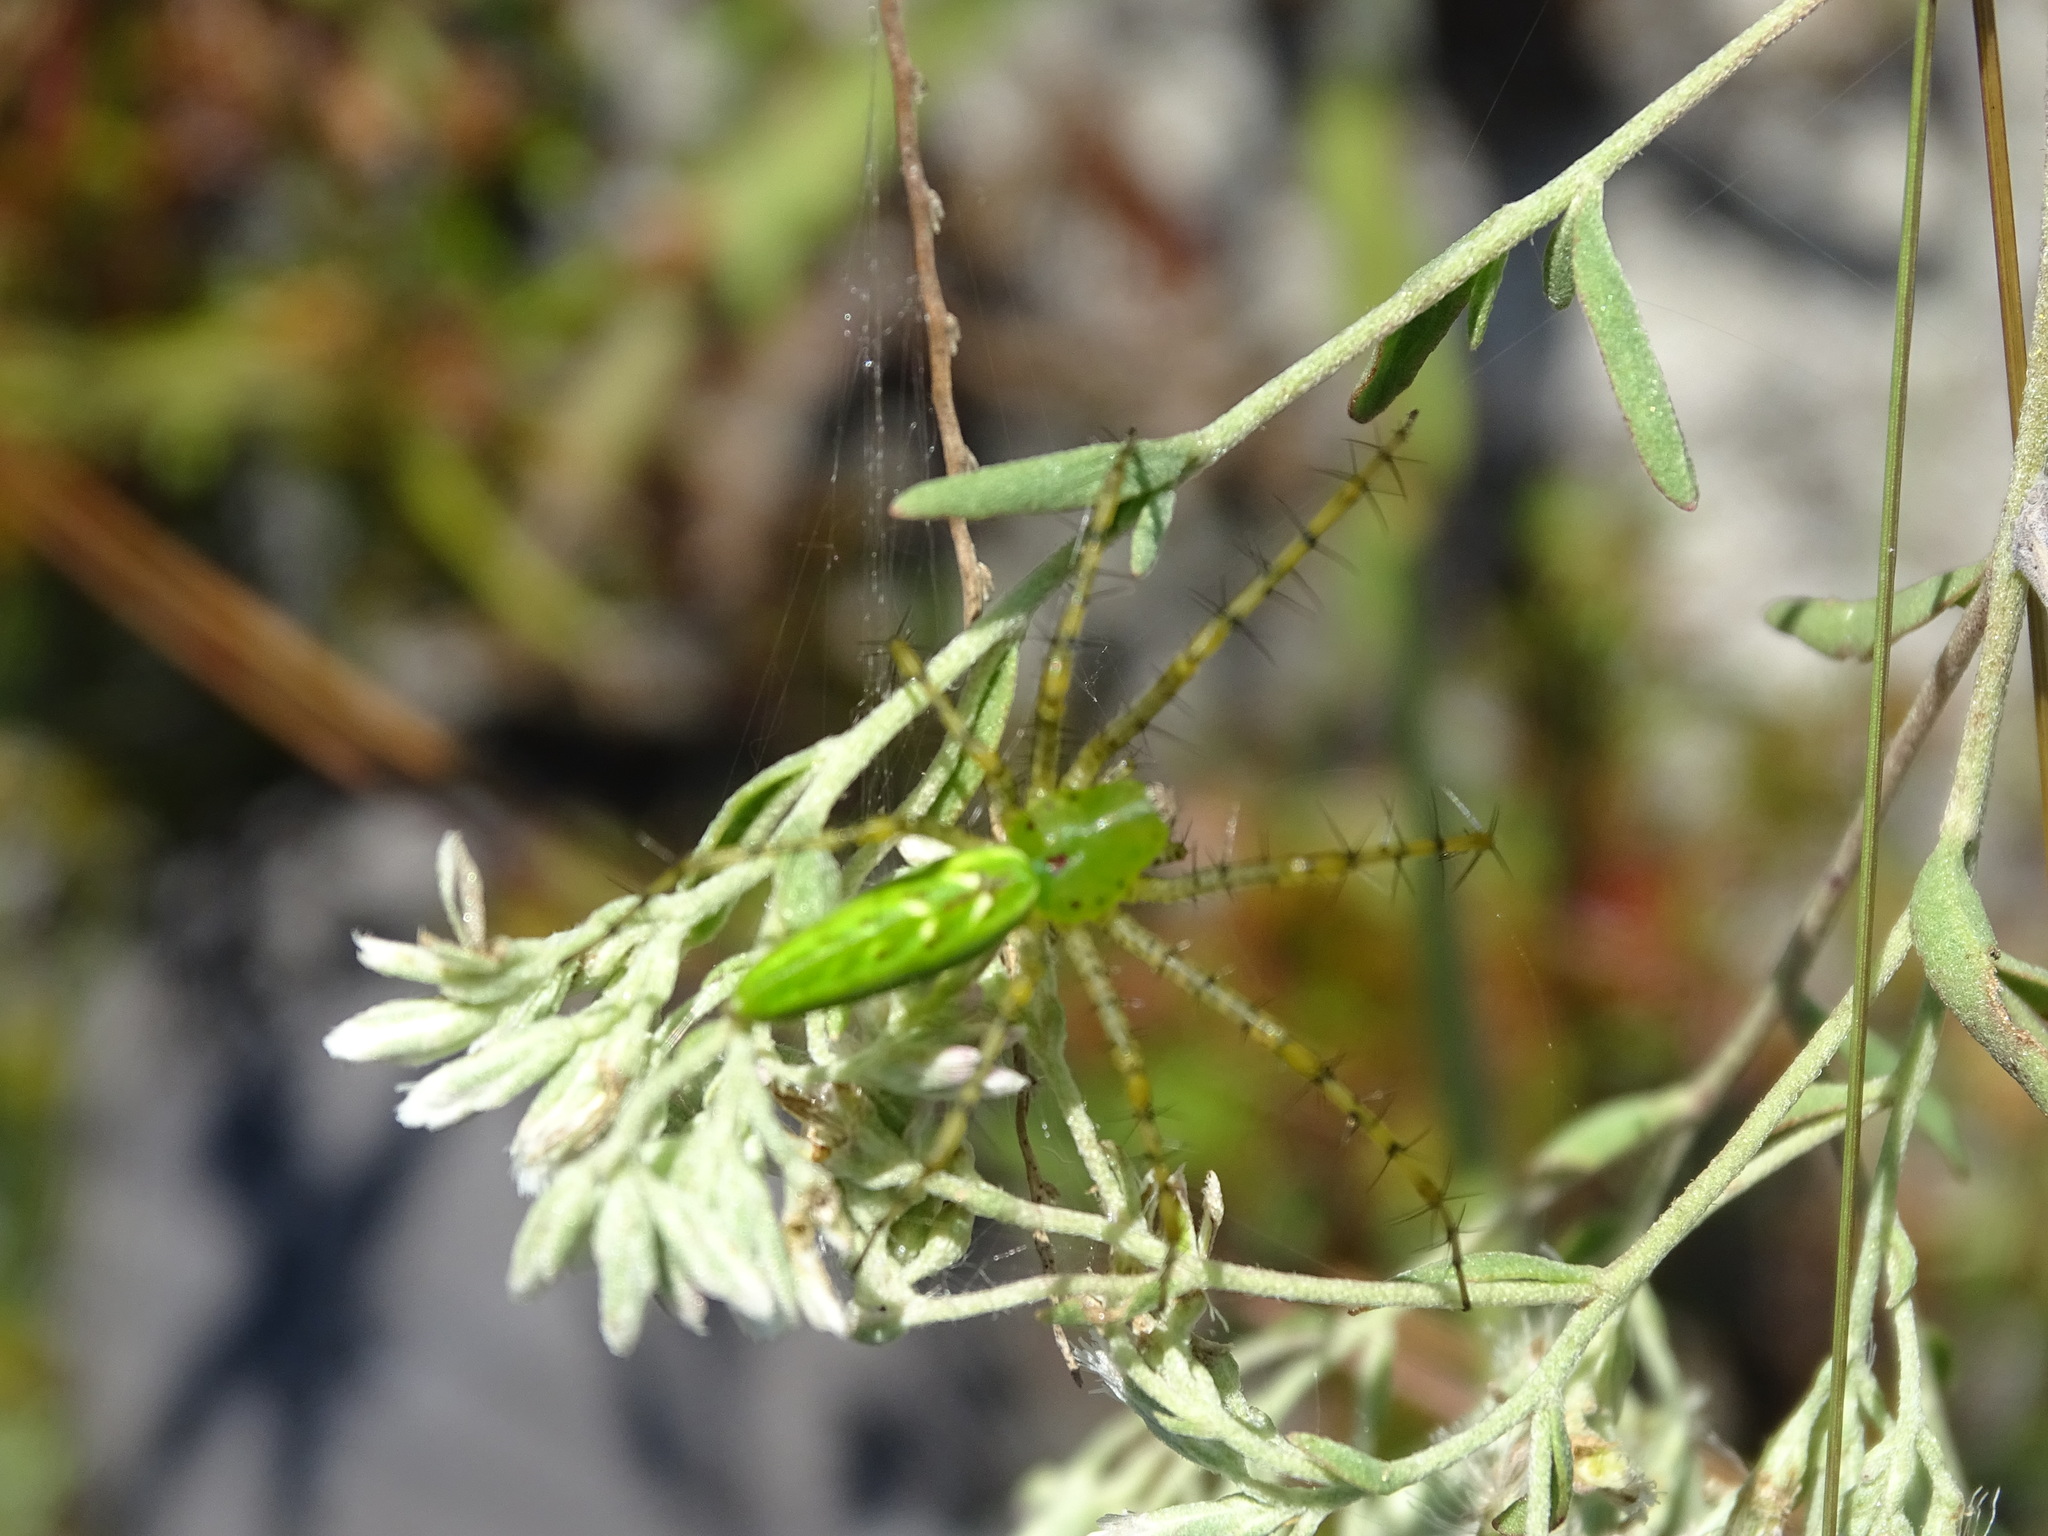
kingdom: Animalia
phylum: Arthropoda
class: Arachnida
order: Araneae
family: Oxyopidae
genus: Peucetia
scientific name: Peucetia viridans
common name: Lynx spiders
